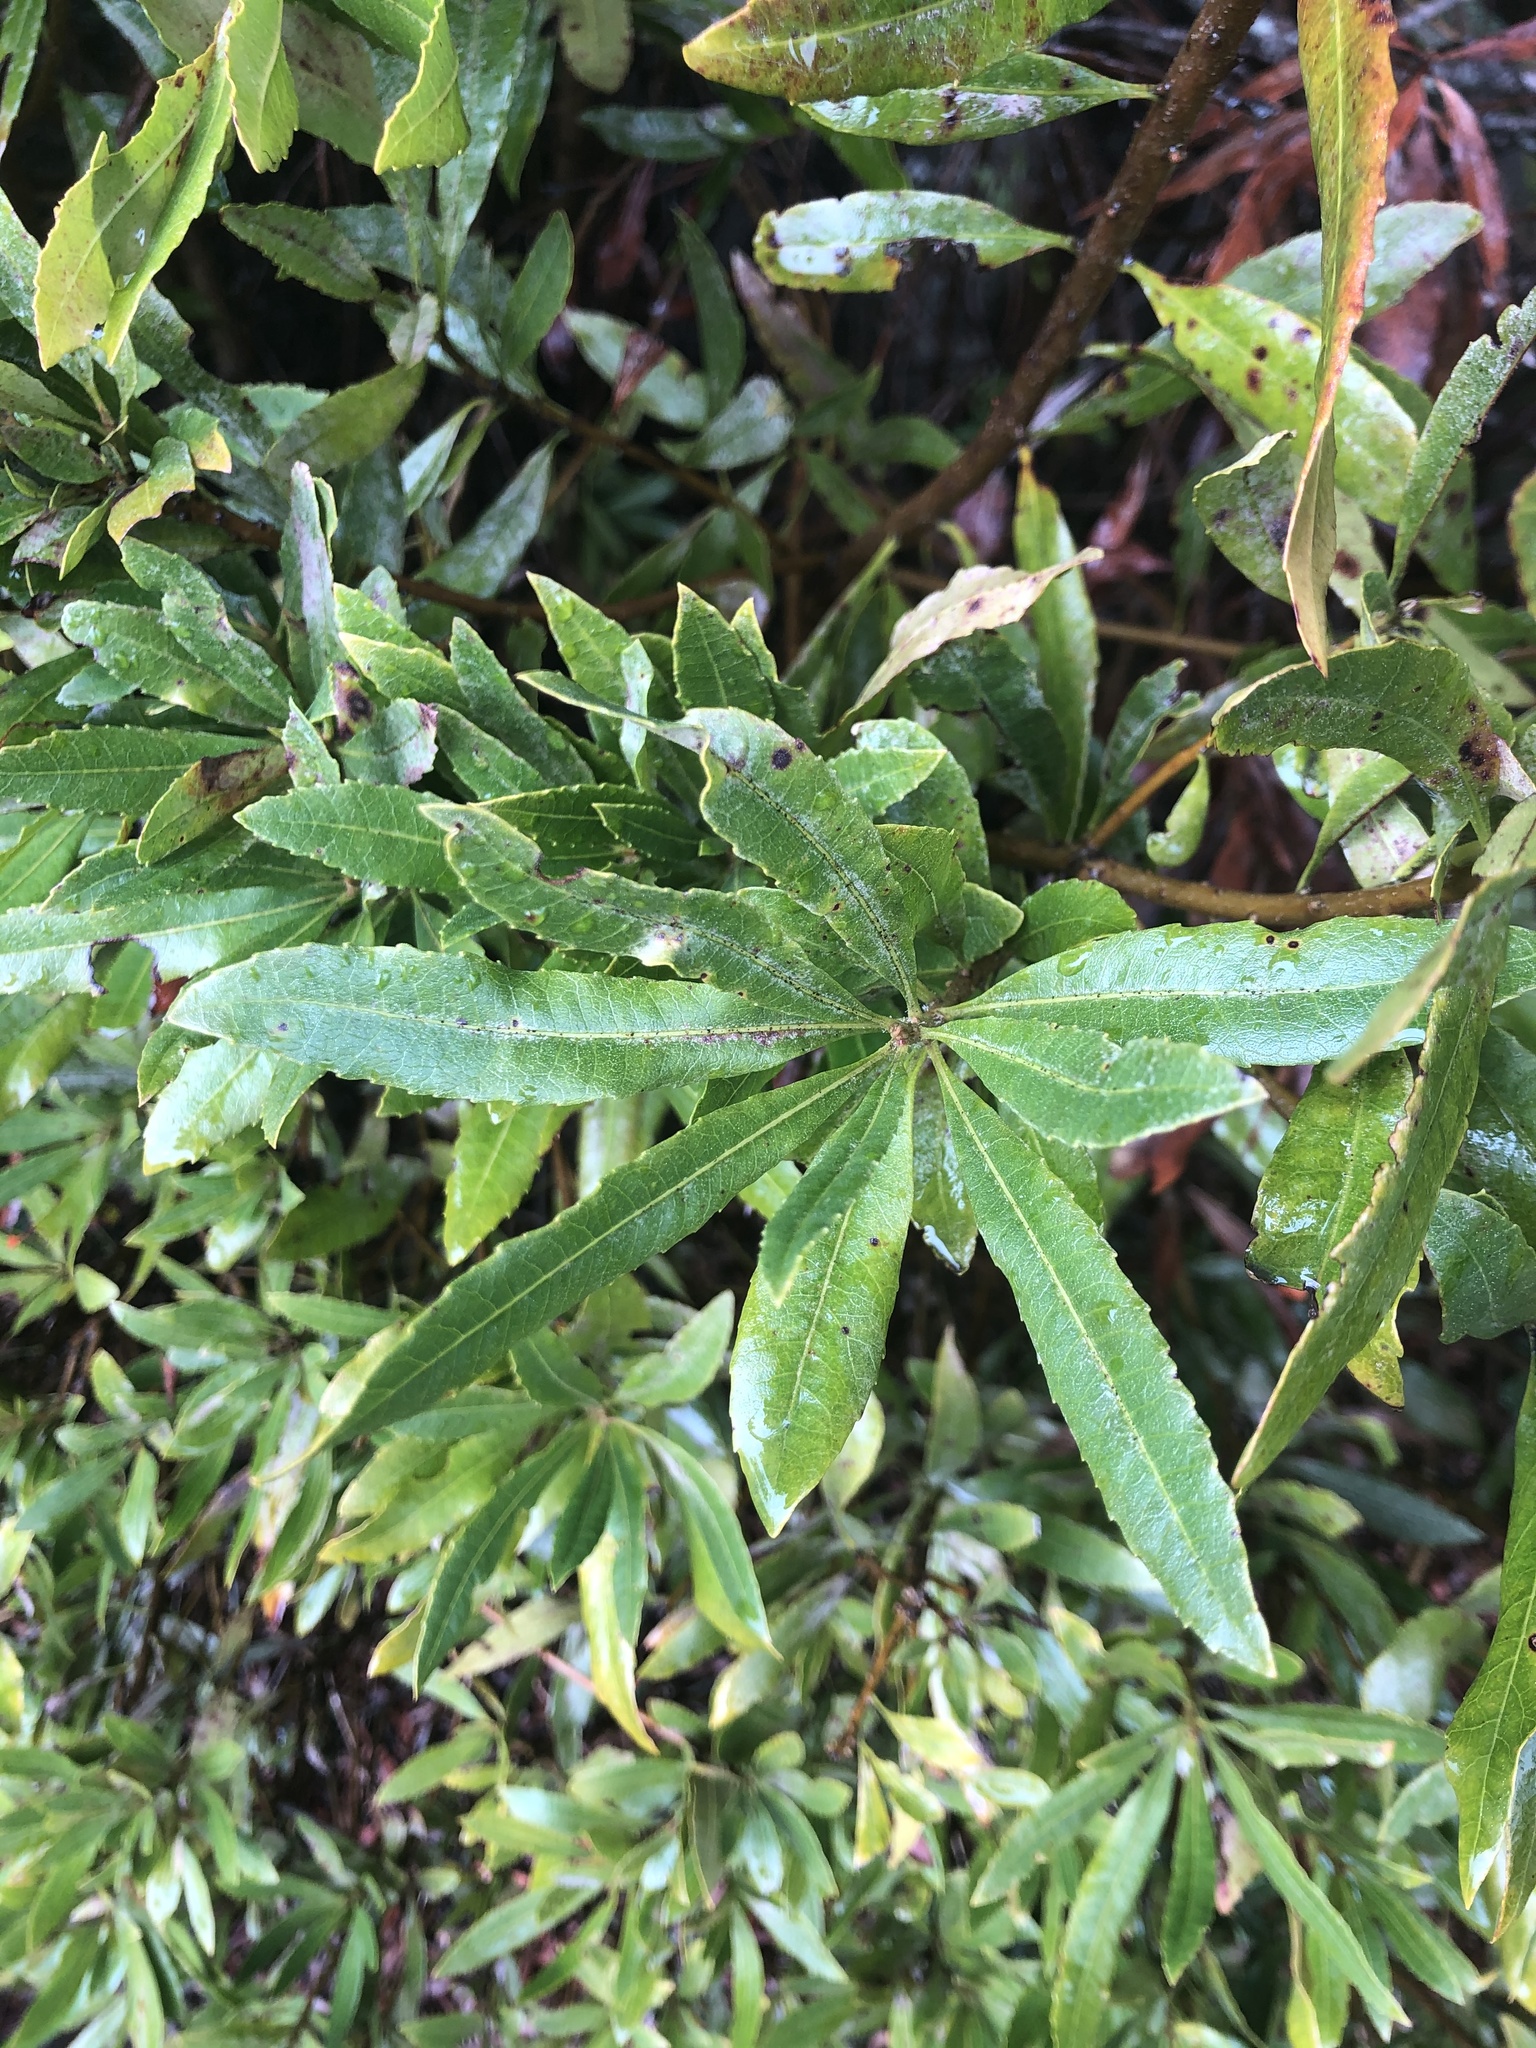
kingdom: Plantae
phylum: Tracheophyta
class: Magnoliopsida
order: Fagales
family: Myricaceae
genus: Morella
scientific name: Morella californica
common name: California wax-myrtle
